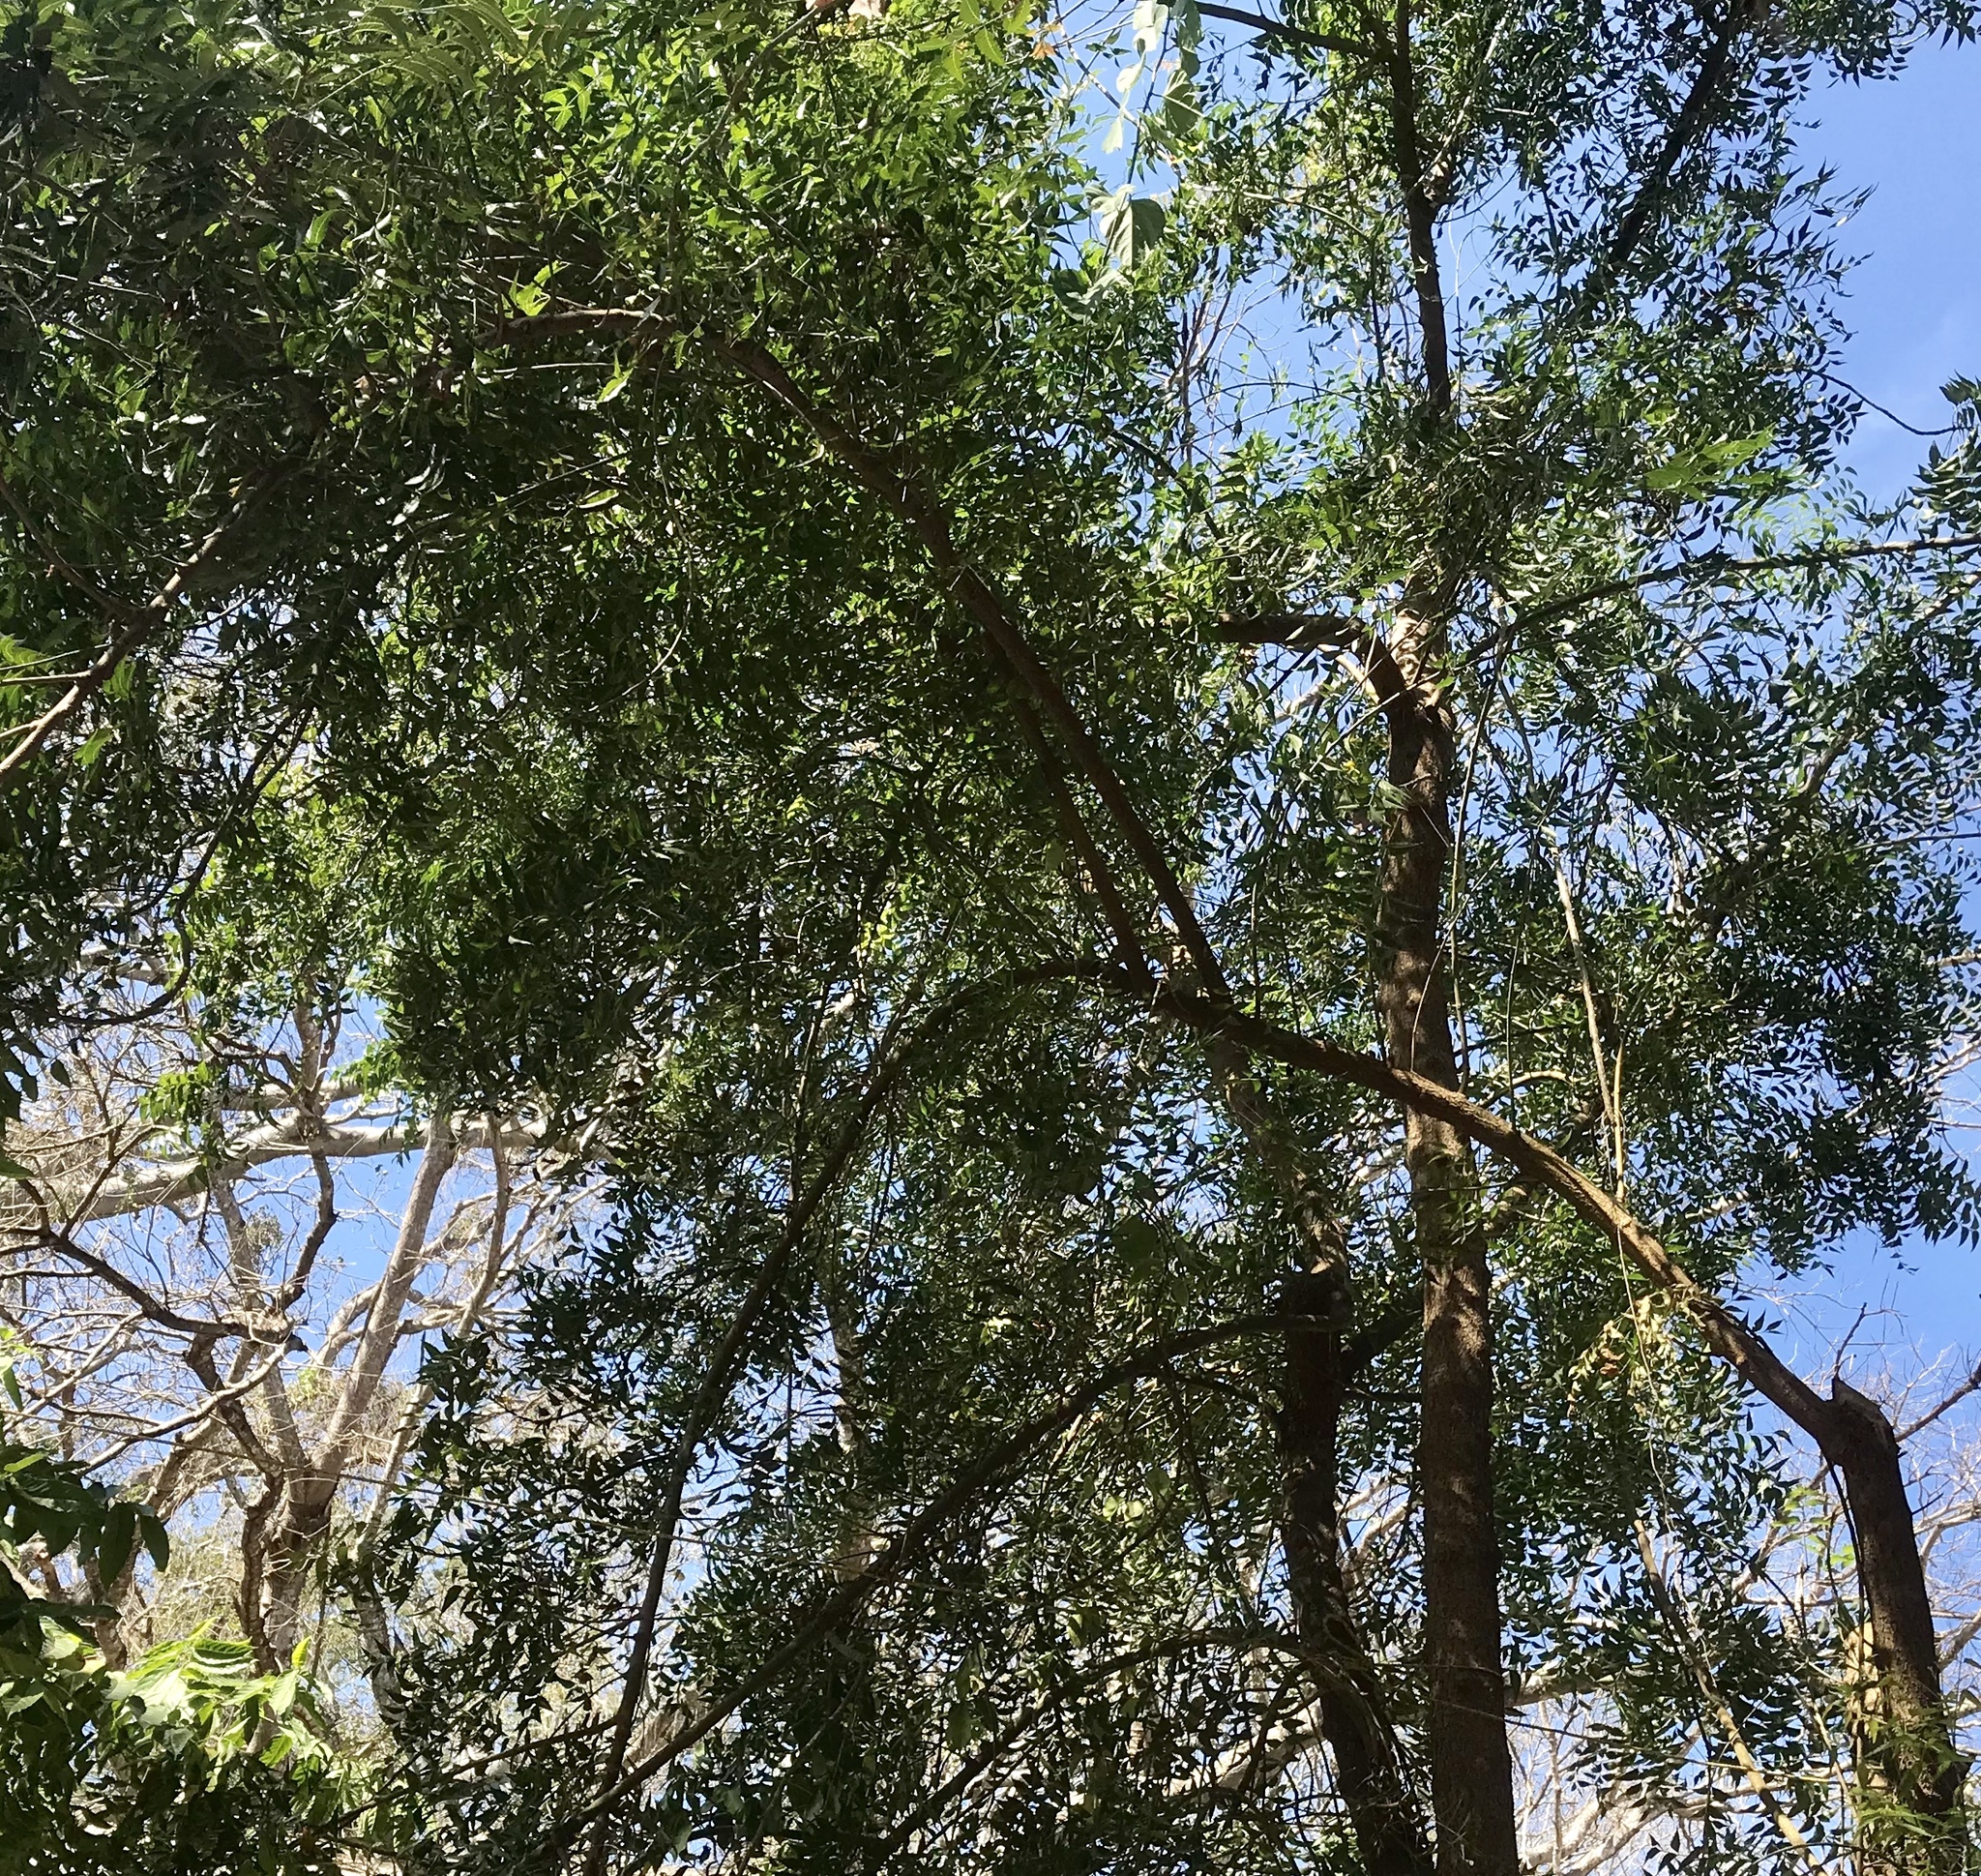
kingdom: Plantae
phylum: Tracheophyta
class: Magnoliopsida
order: Sapindales
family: Meliaceae
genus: Azadirachta
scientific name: Azadirachta indica
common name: Neem
